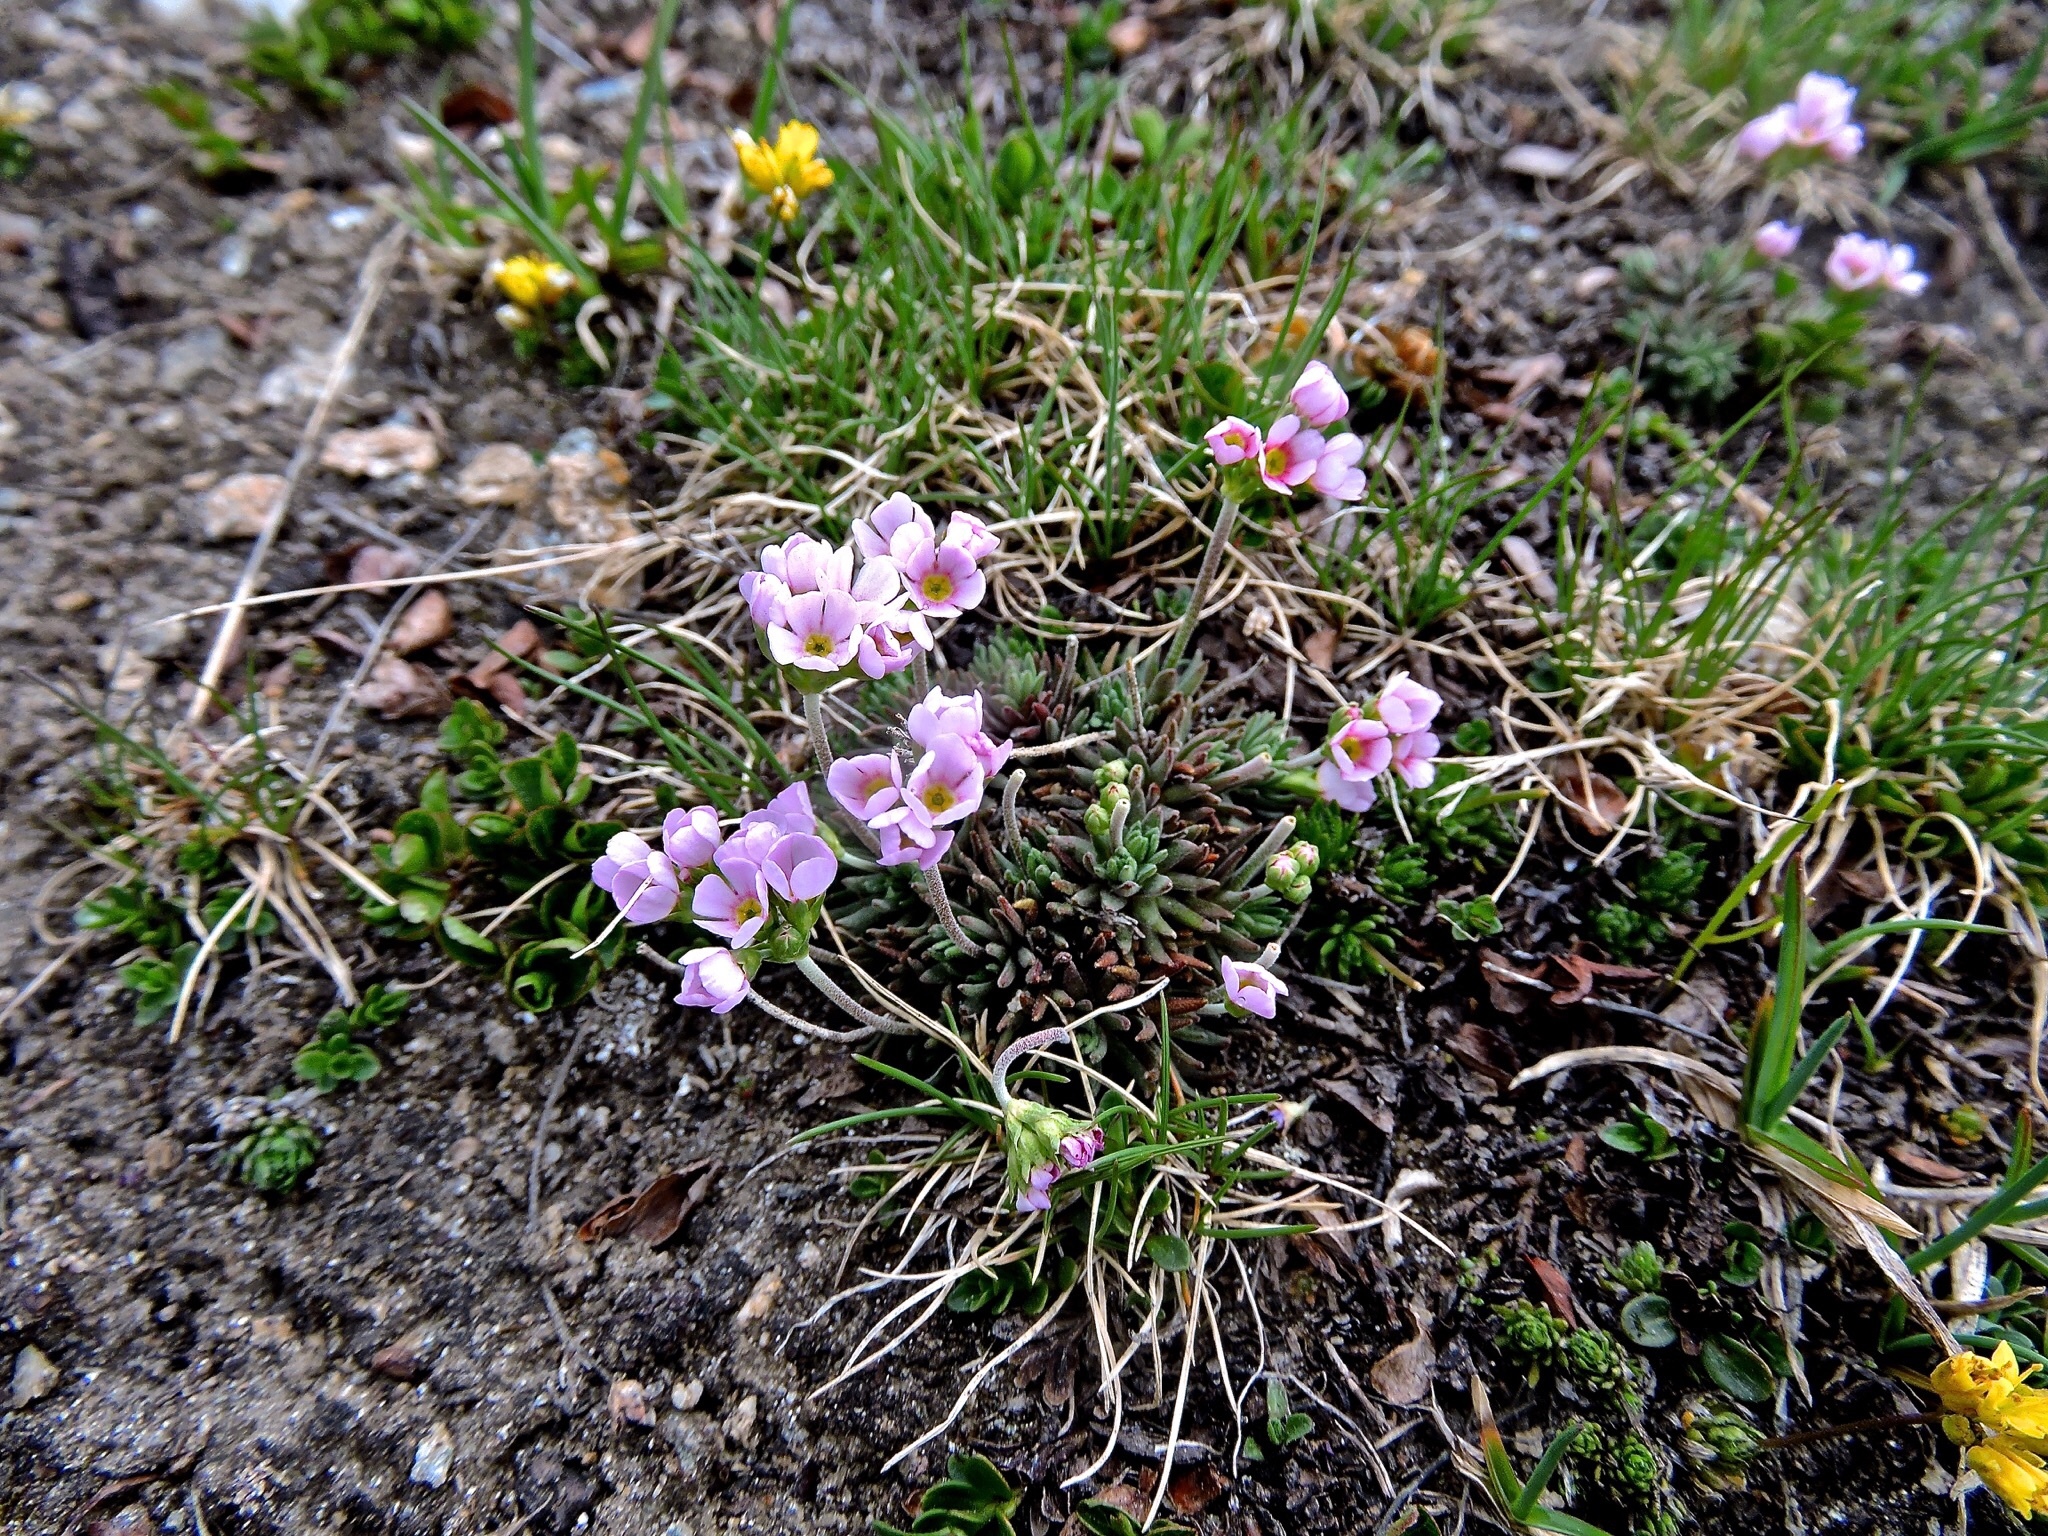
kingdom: Plantae
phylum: Tracheophyta
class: Magnoliopsida
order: Ericales
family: Primulaceae
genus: Androsace
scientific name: Androsace adfinis
